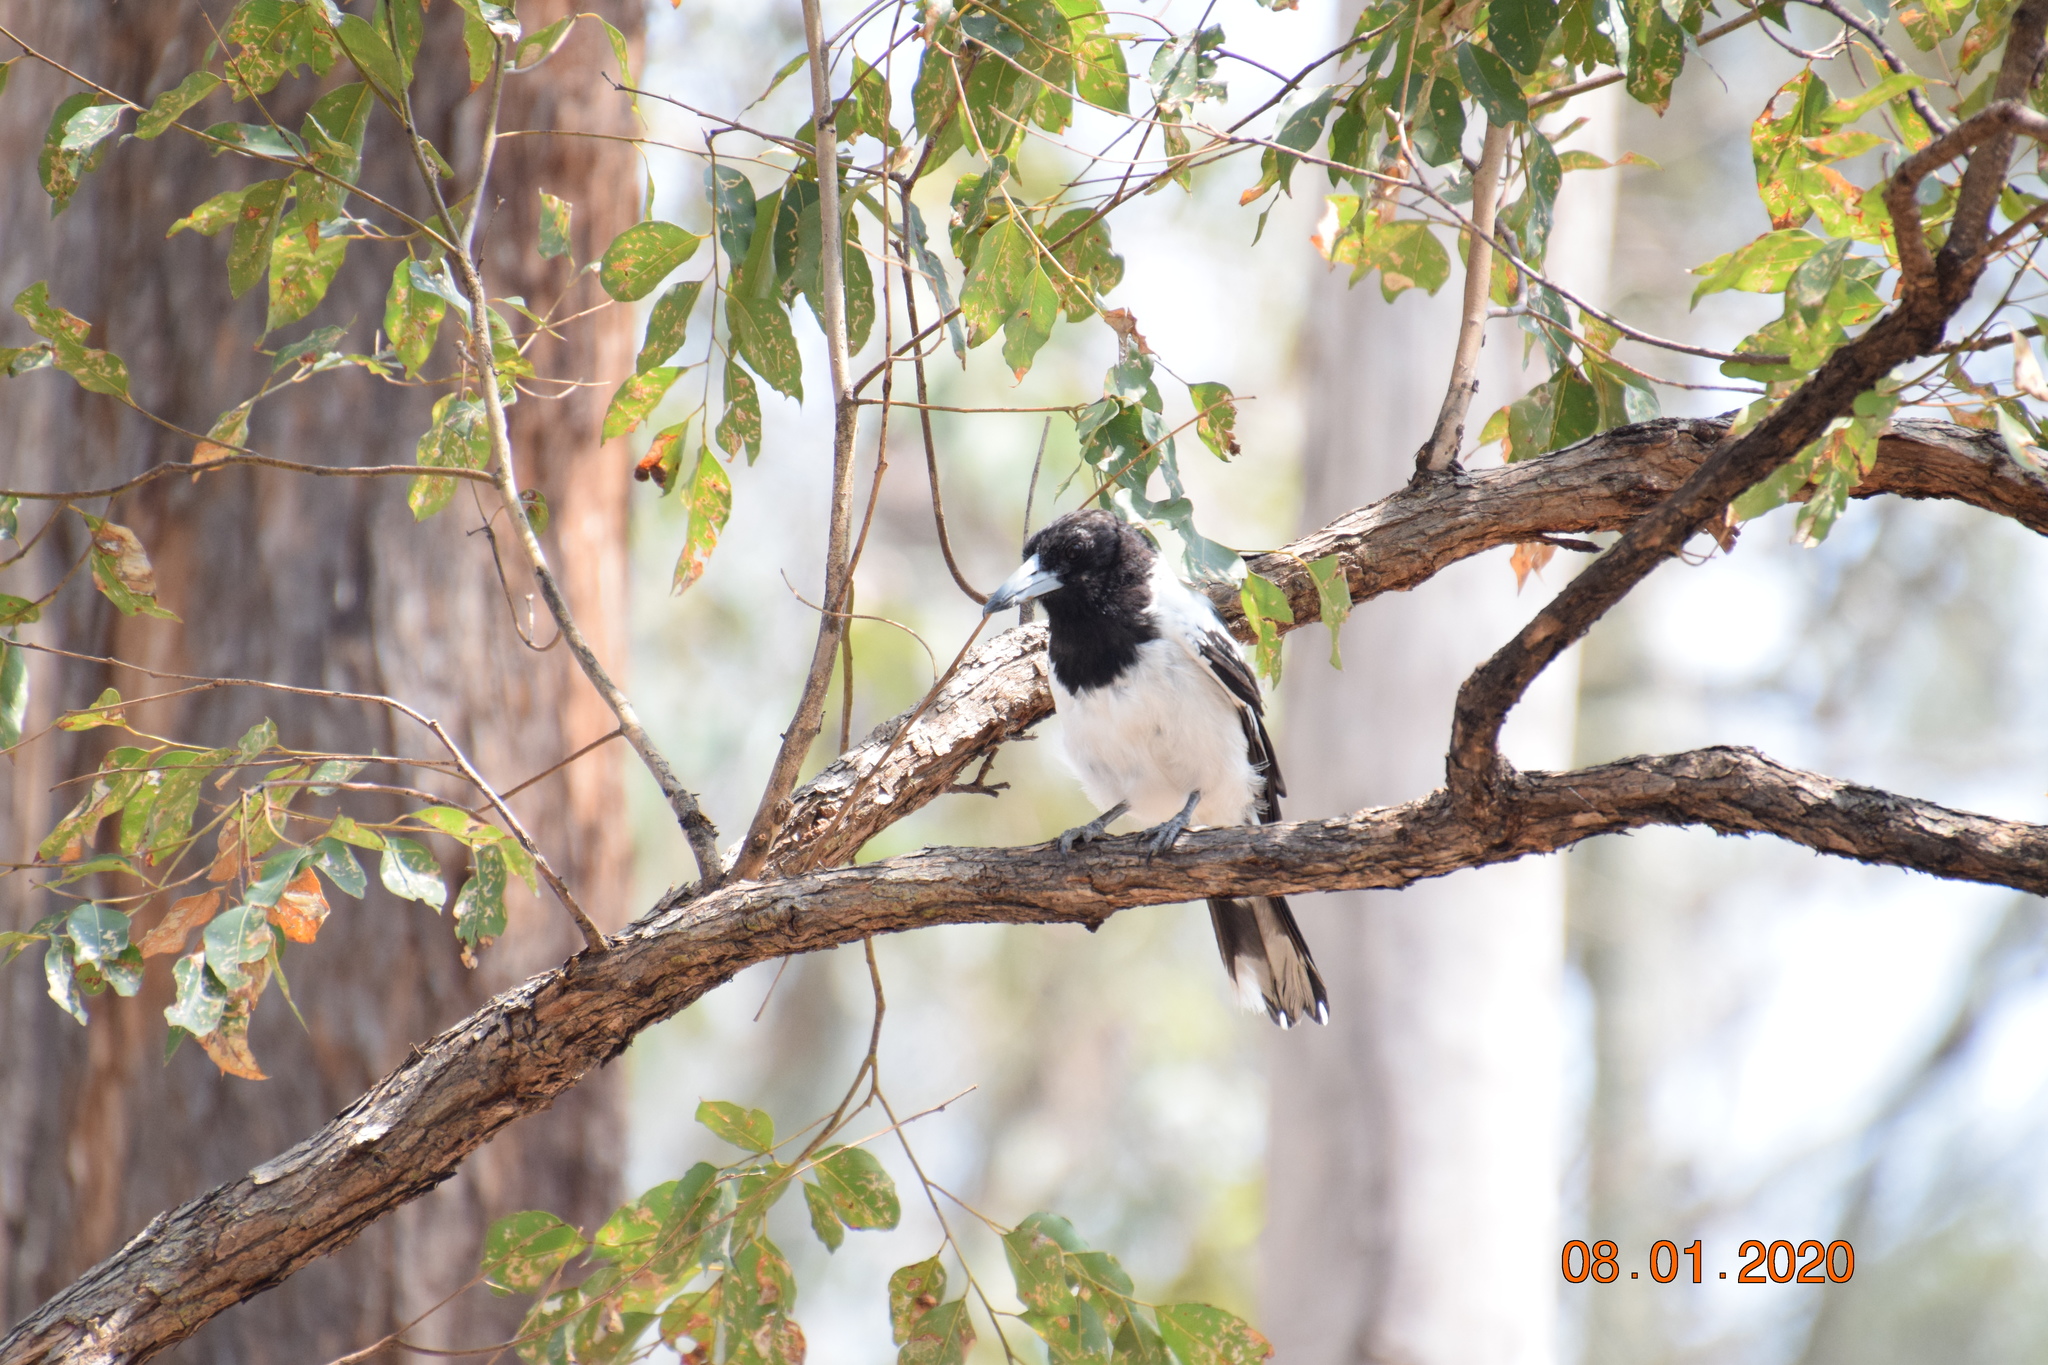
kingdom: Animalia
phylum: Chordata
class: Aves
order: Passeriformes
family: Cracticidae
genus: Cracticus
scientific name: Cracticus nigrogularis
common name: Pied butcherbird
